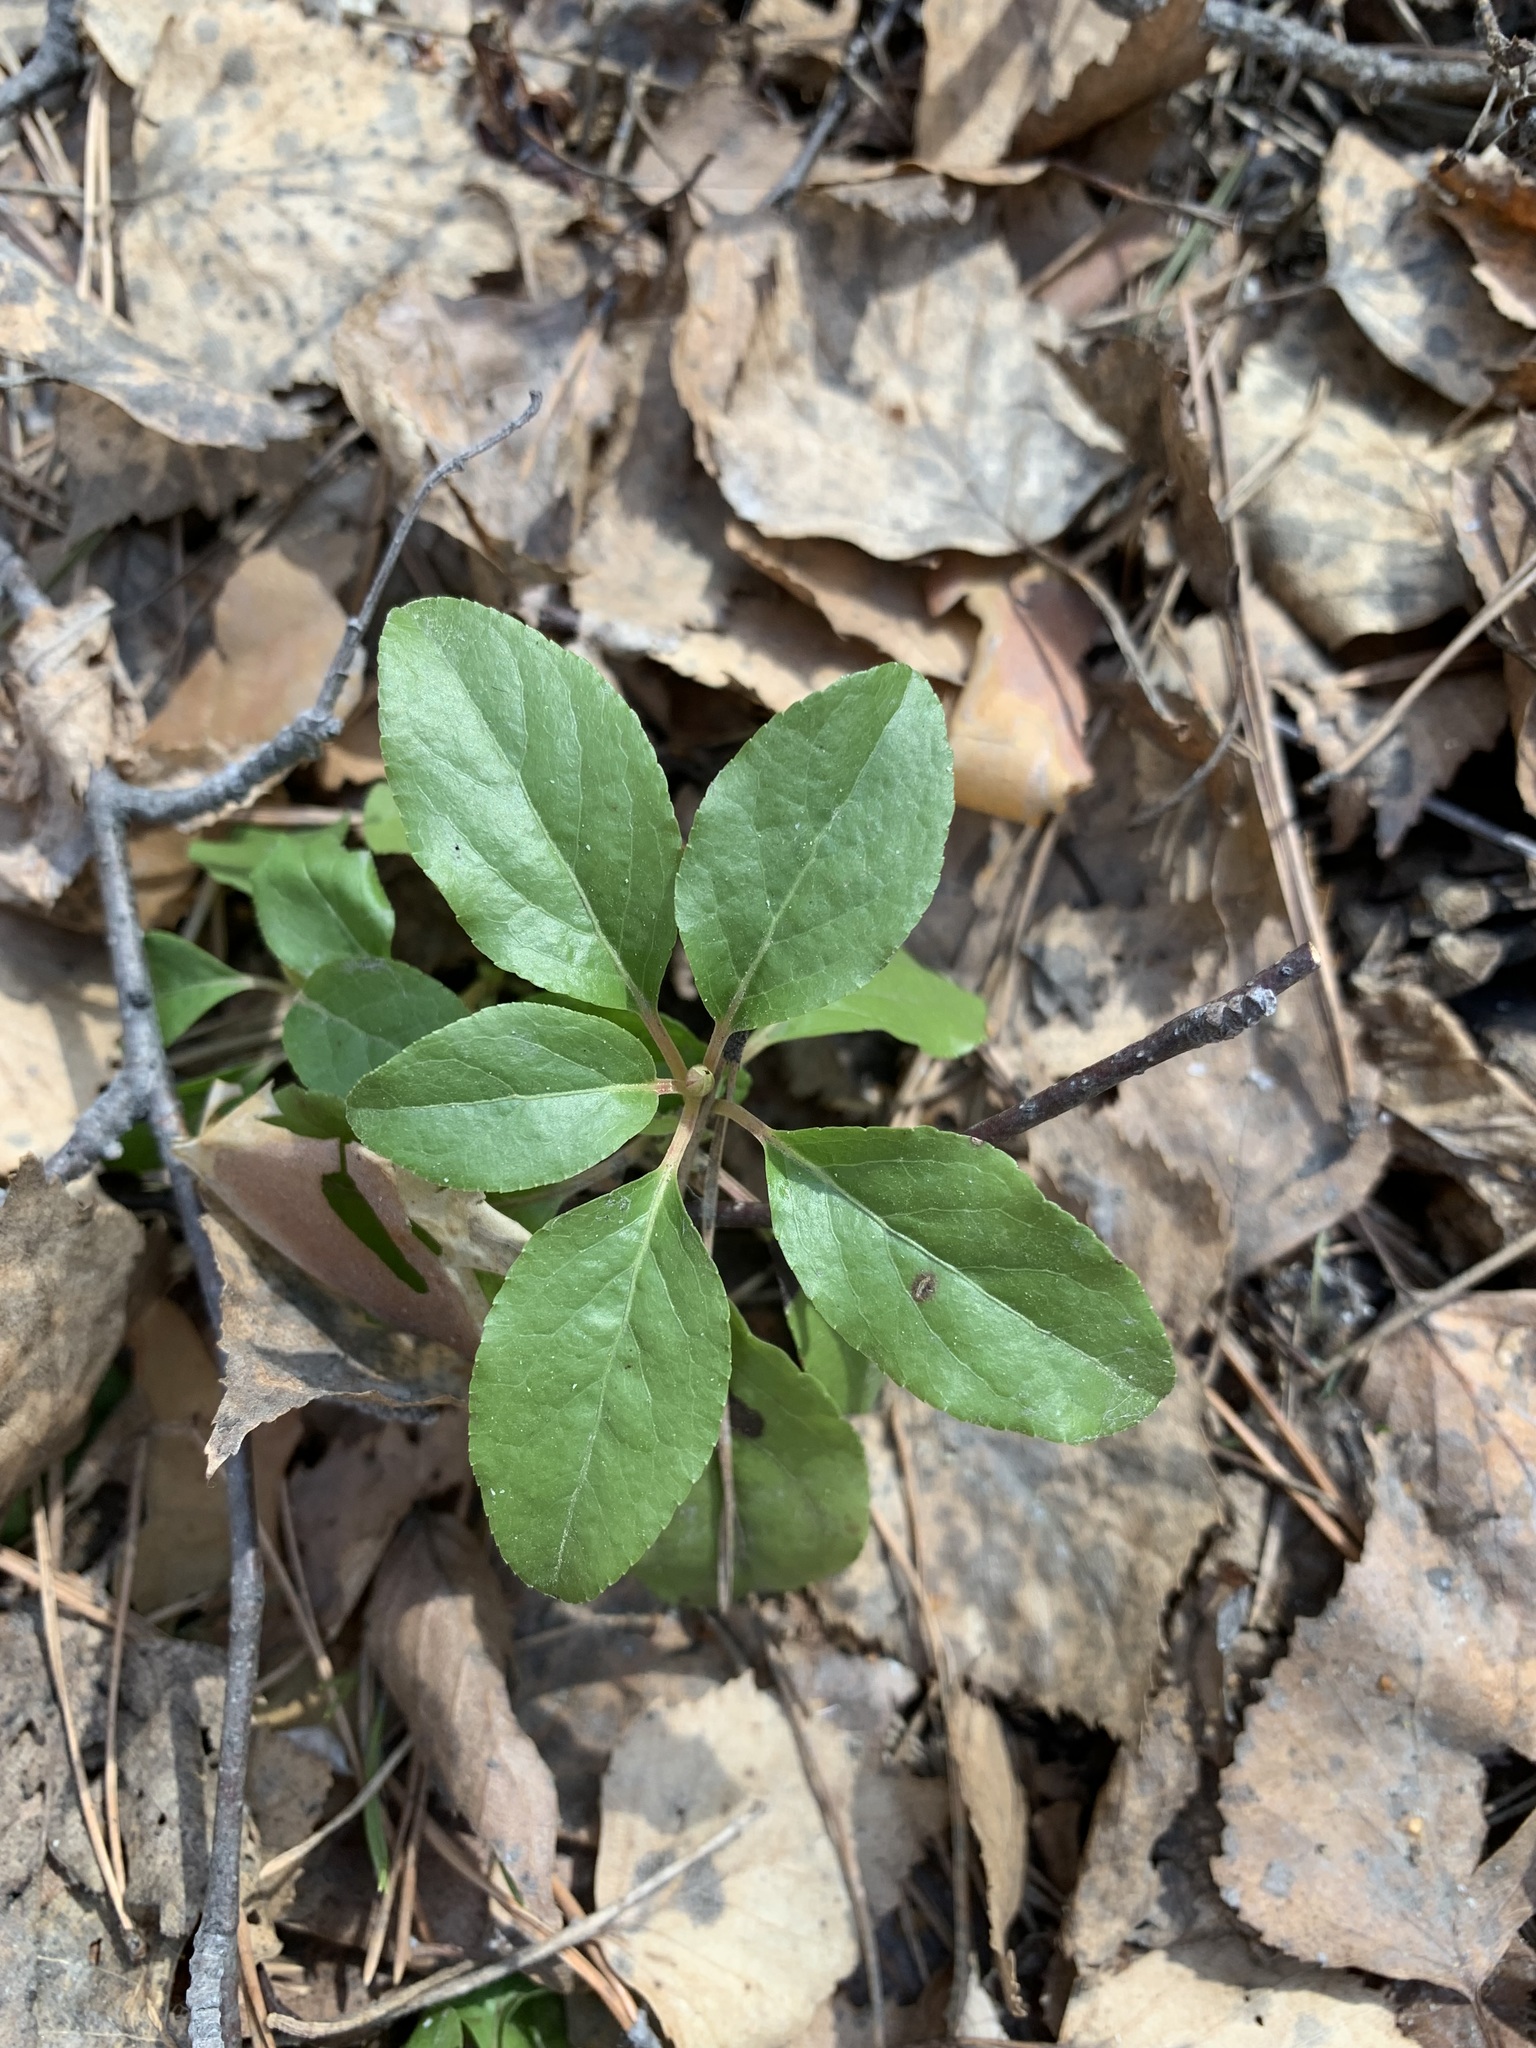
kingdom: Plantae
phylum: Tracheophyta
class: Magnoliopsida
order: Ericales
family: Ericaceae
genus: Orthilia
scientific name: Orthilia secunda
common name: One-sided orthilia
